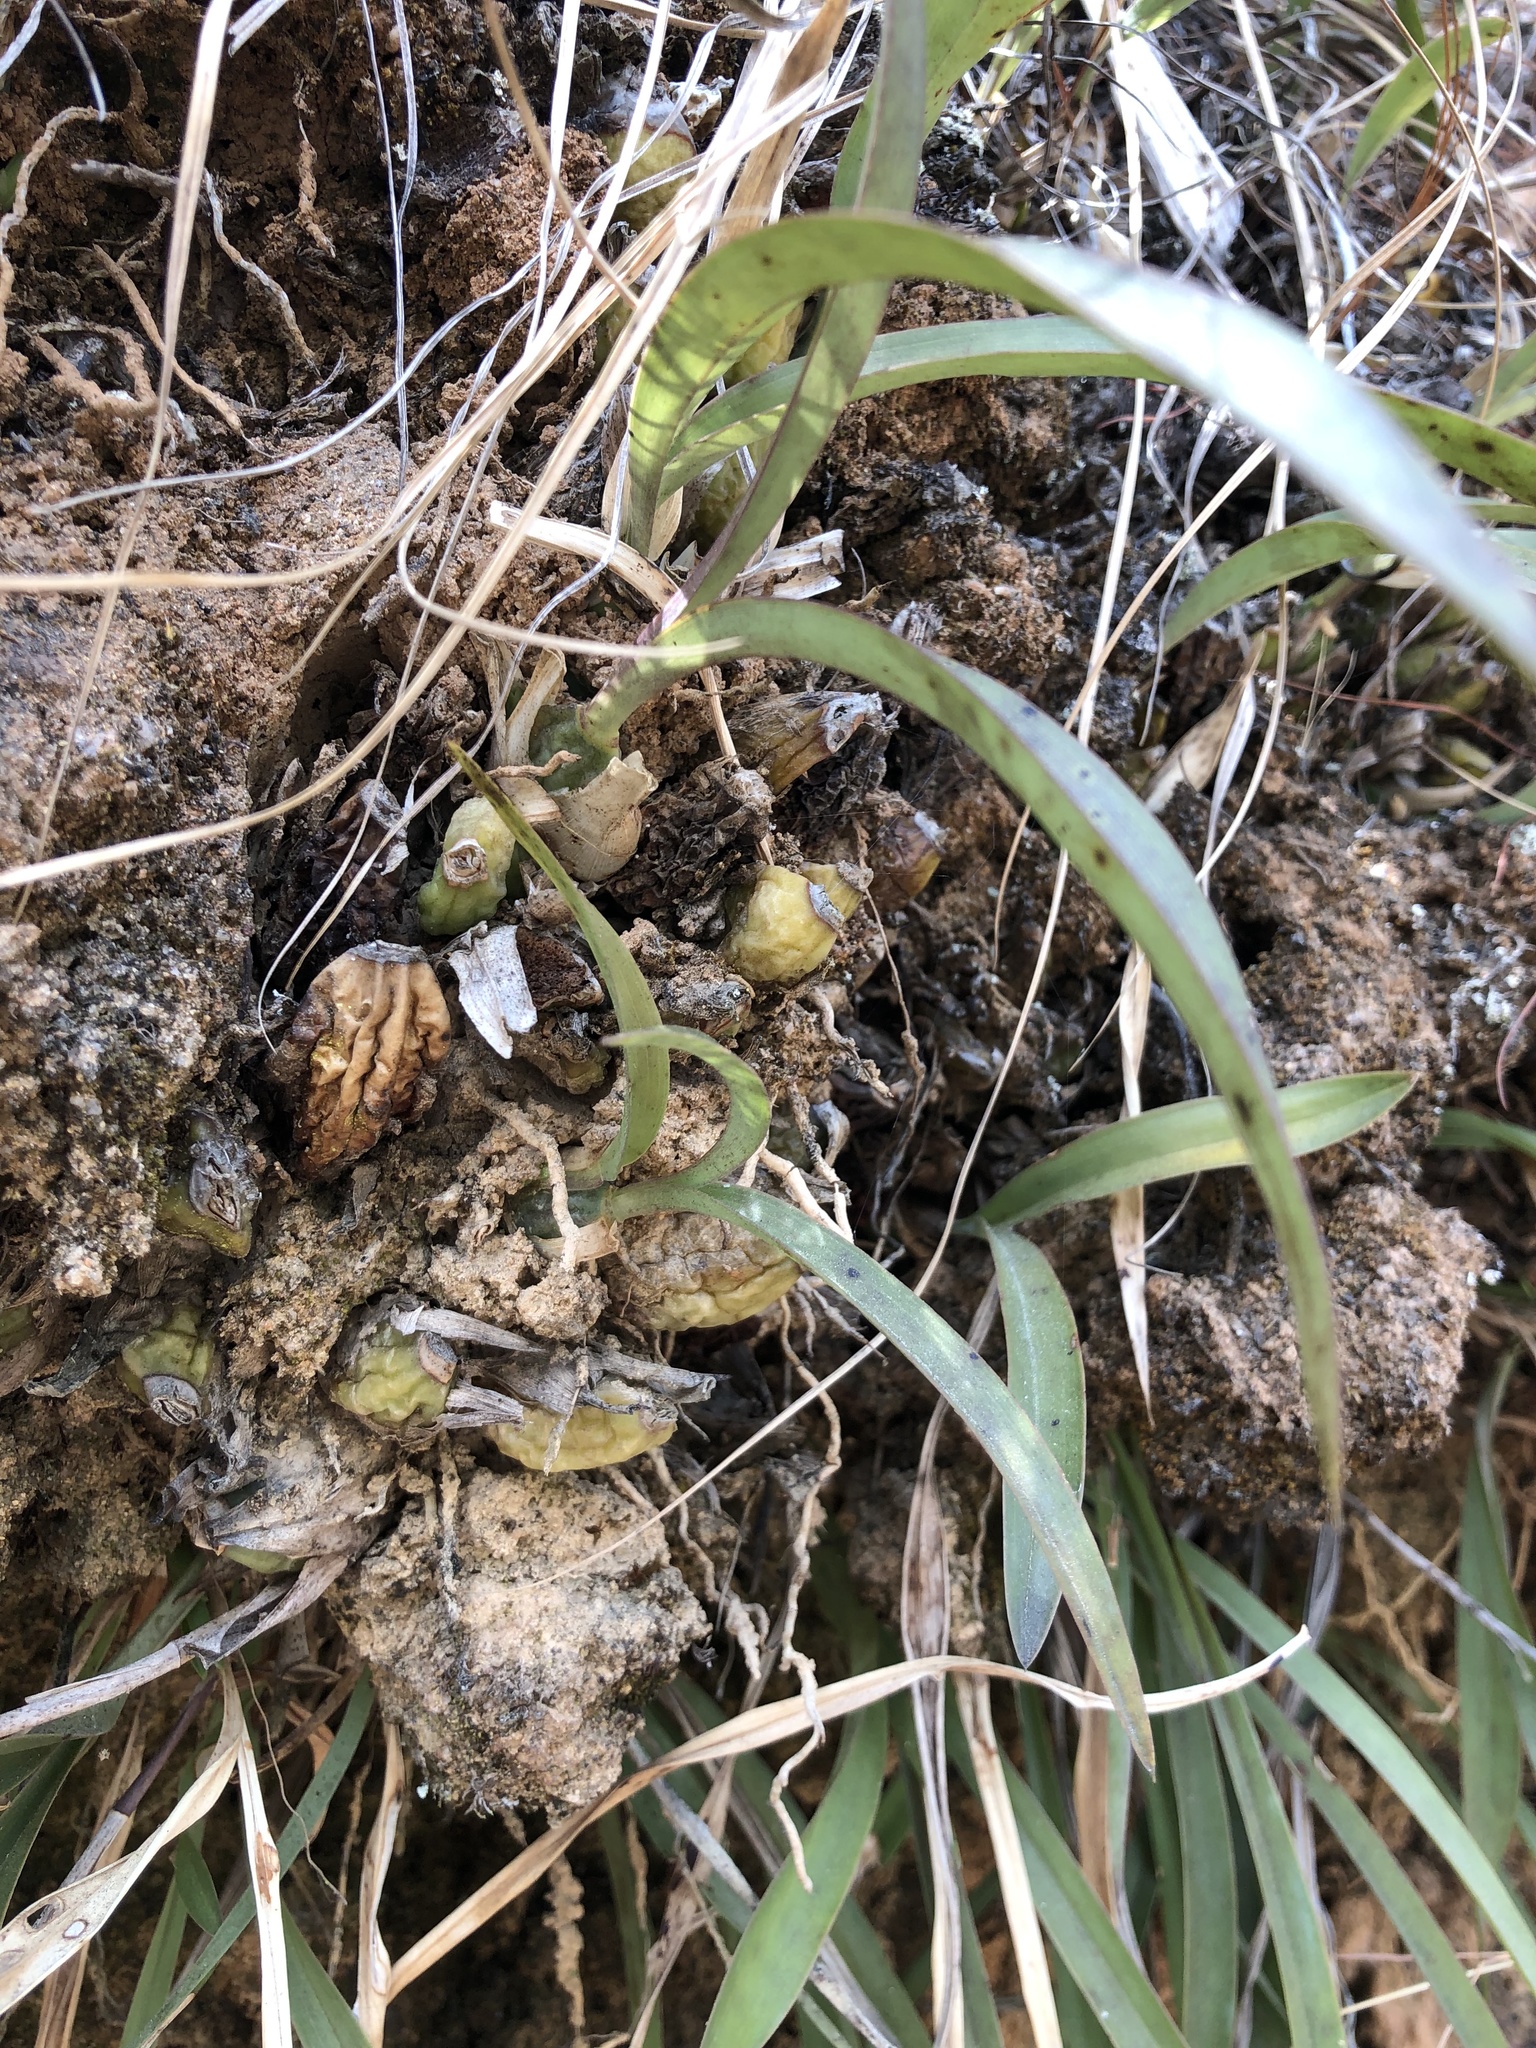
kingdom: Plantae
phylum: Tracheophyta
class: Liliopsida
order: Asparagales
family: Orchidaceae
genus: Oncidium
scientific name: Oncidium graminifolium
